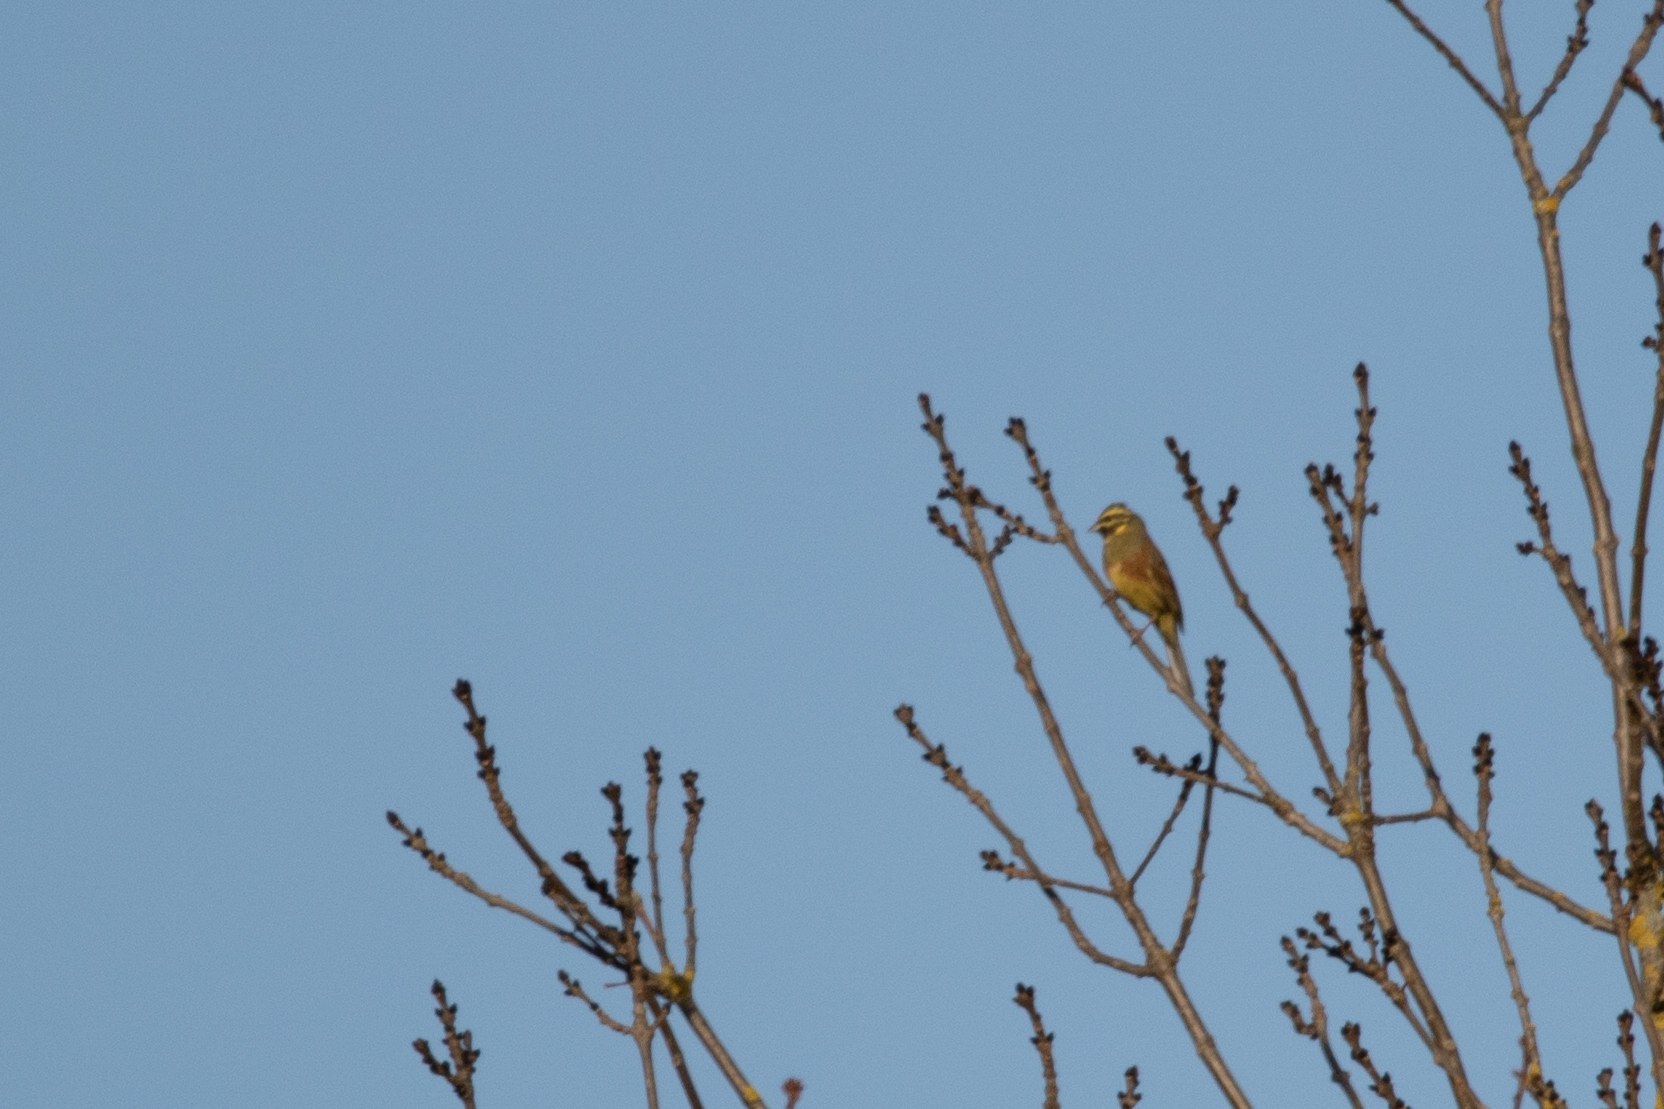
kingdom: Animalia
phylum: Chordata
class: Aves
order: Passeriformes
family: Emberizidae
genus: Emberiza
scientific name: Emberiza cirlus
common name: Cirl bunting
